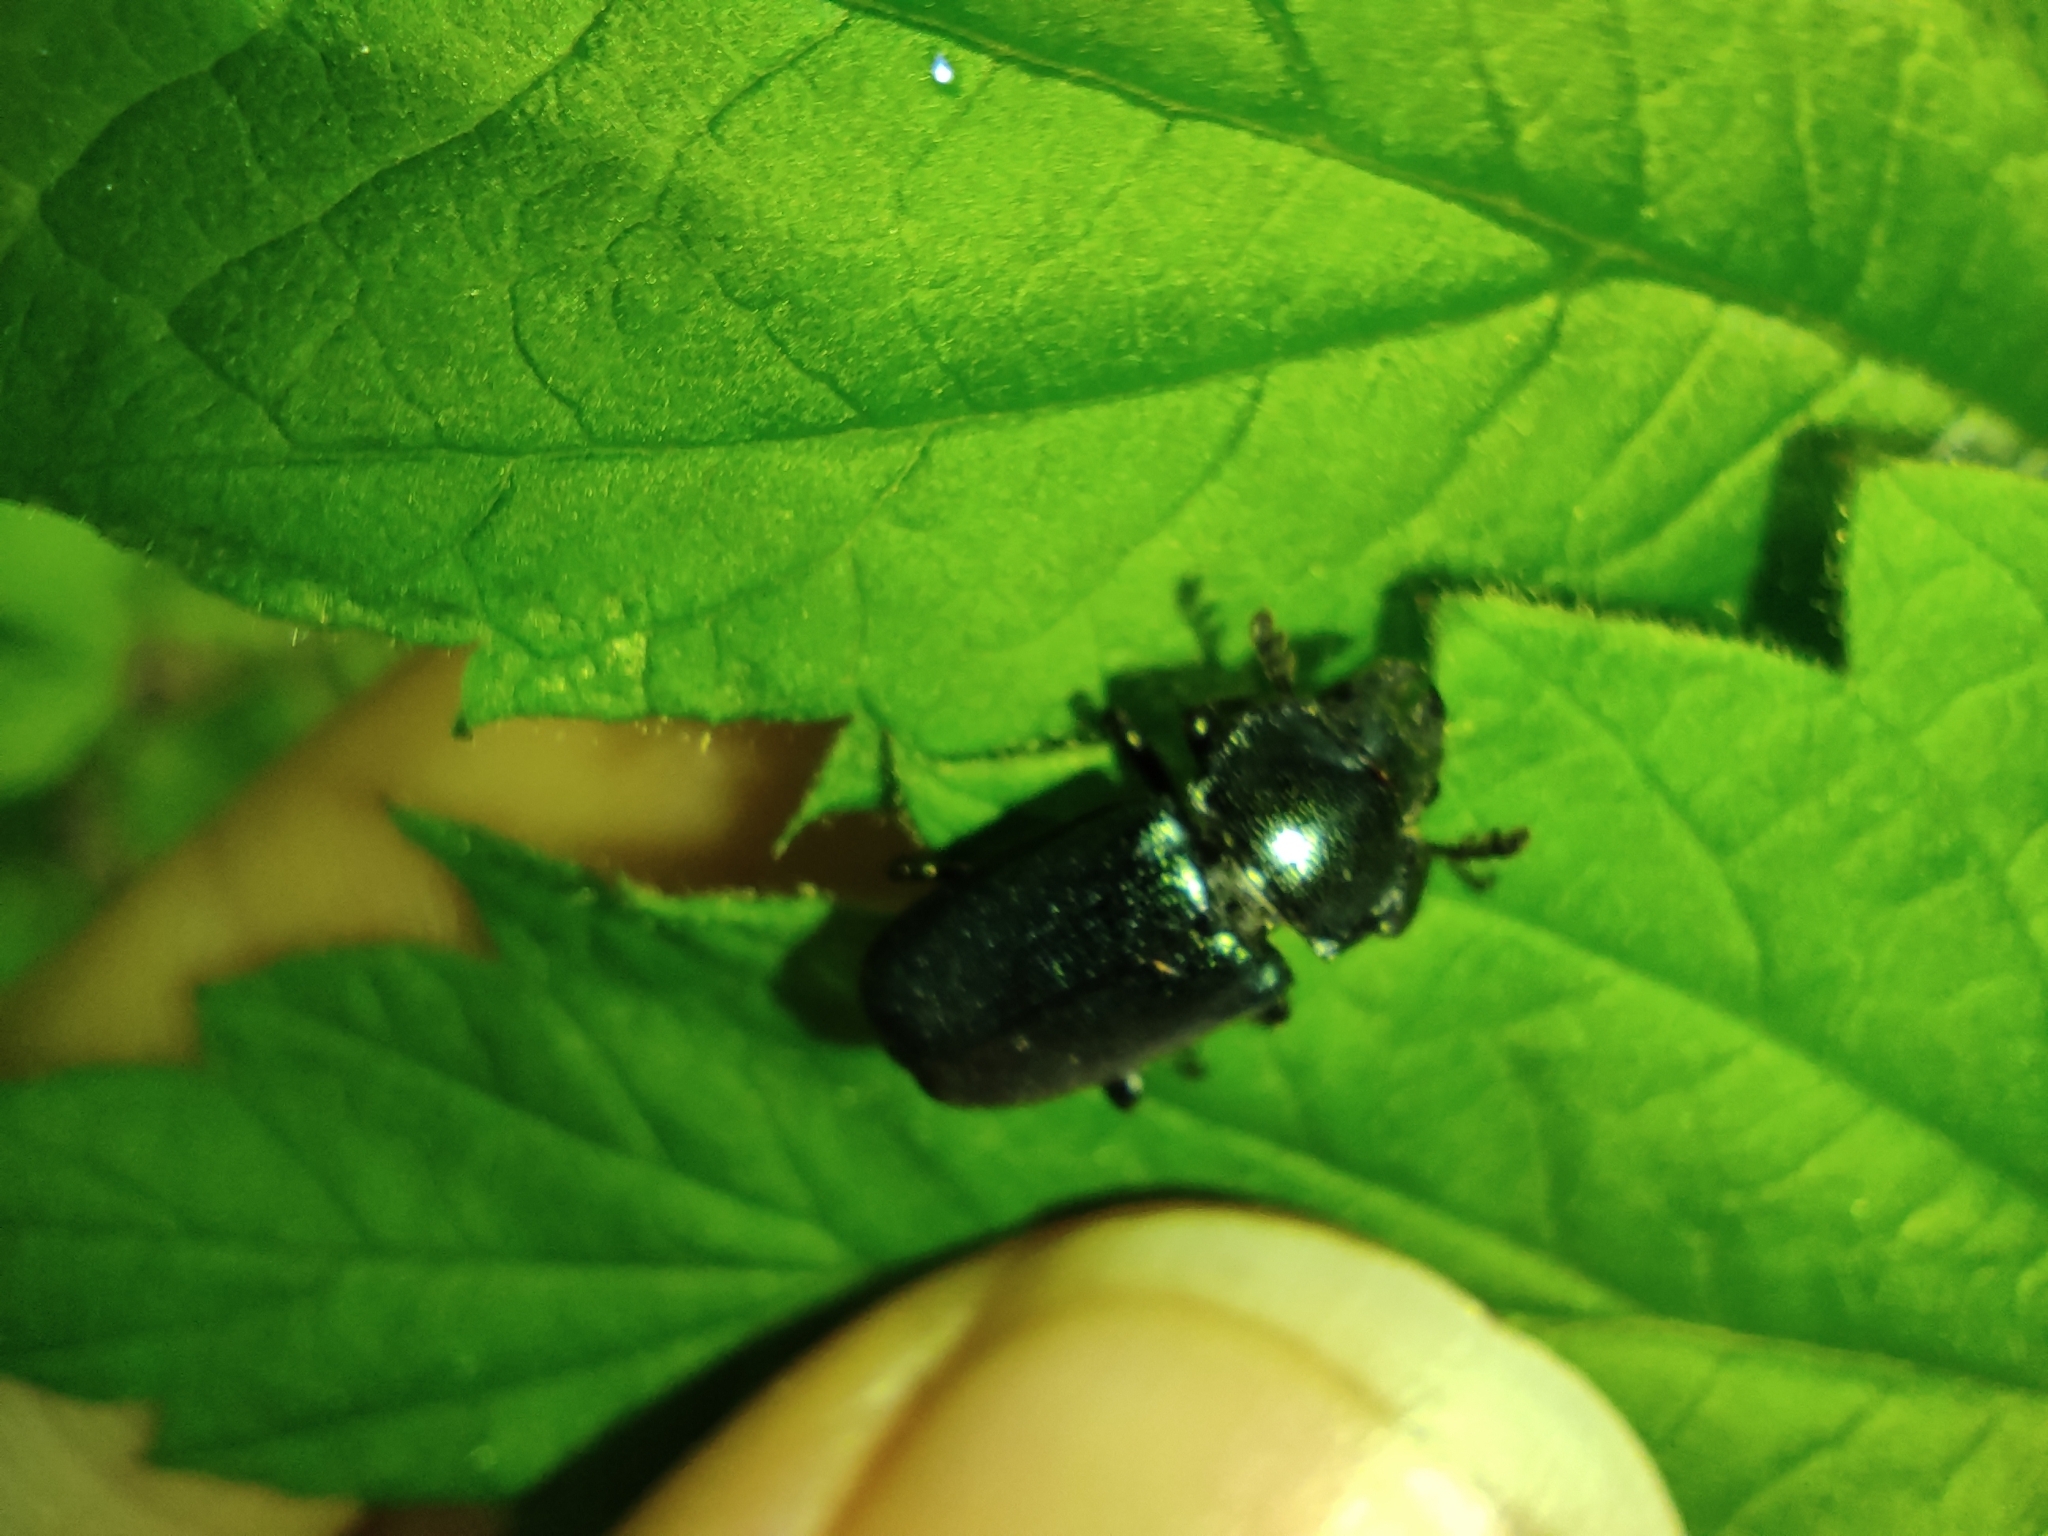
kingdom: Animalia
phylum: Arthropoda
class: Insecta
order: Coleoptera
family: Lucanidae
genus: Platycerus
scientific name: Platycerus caraboides
